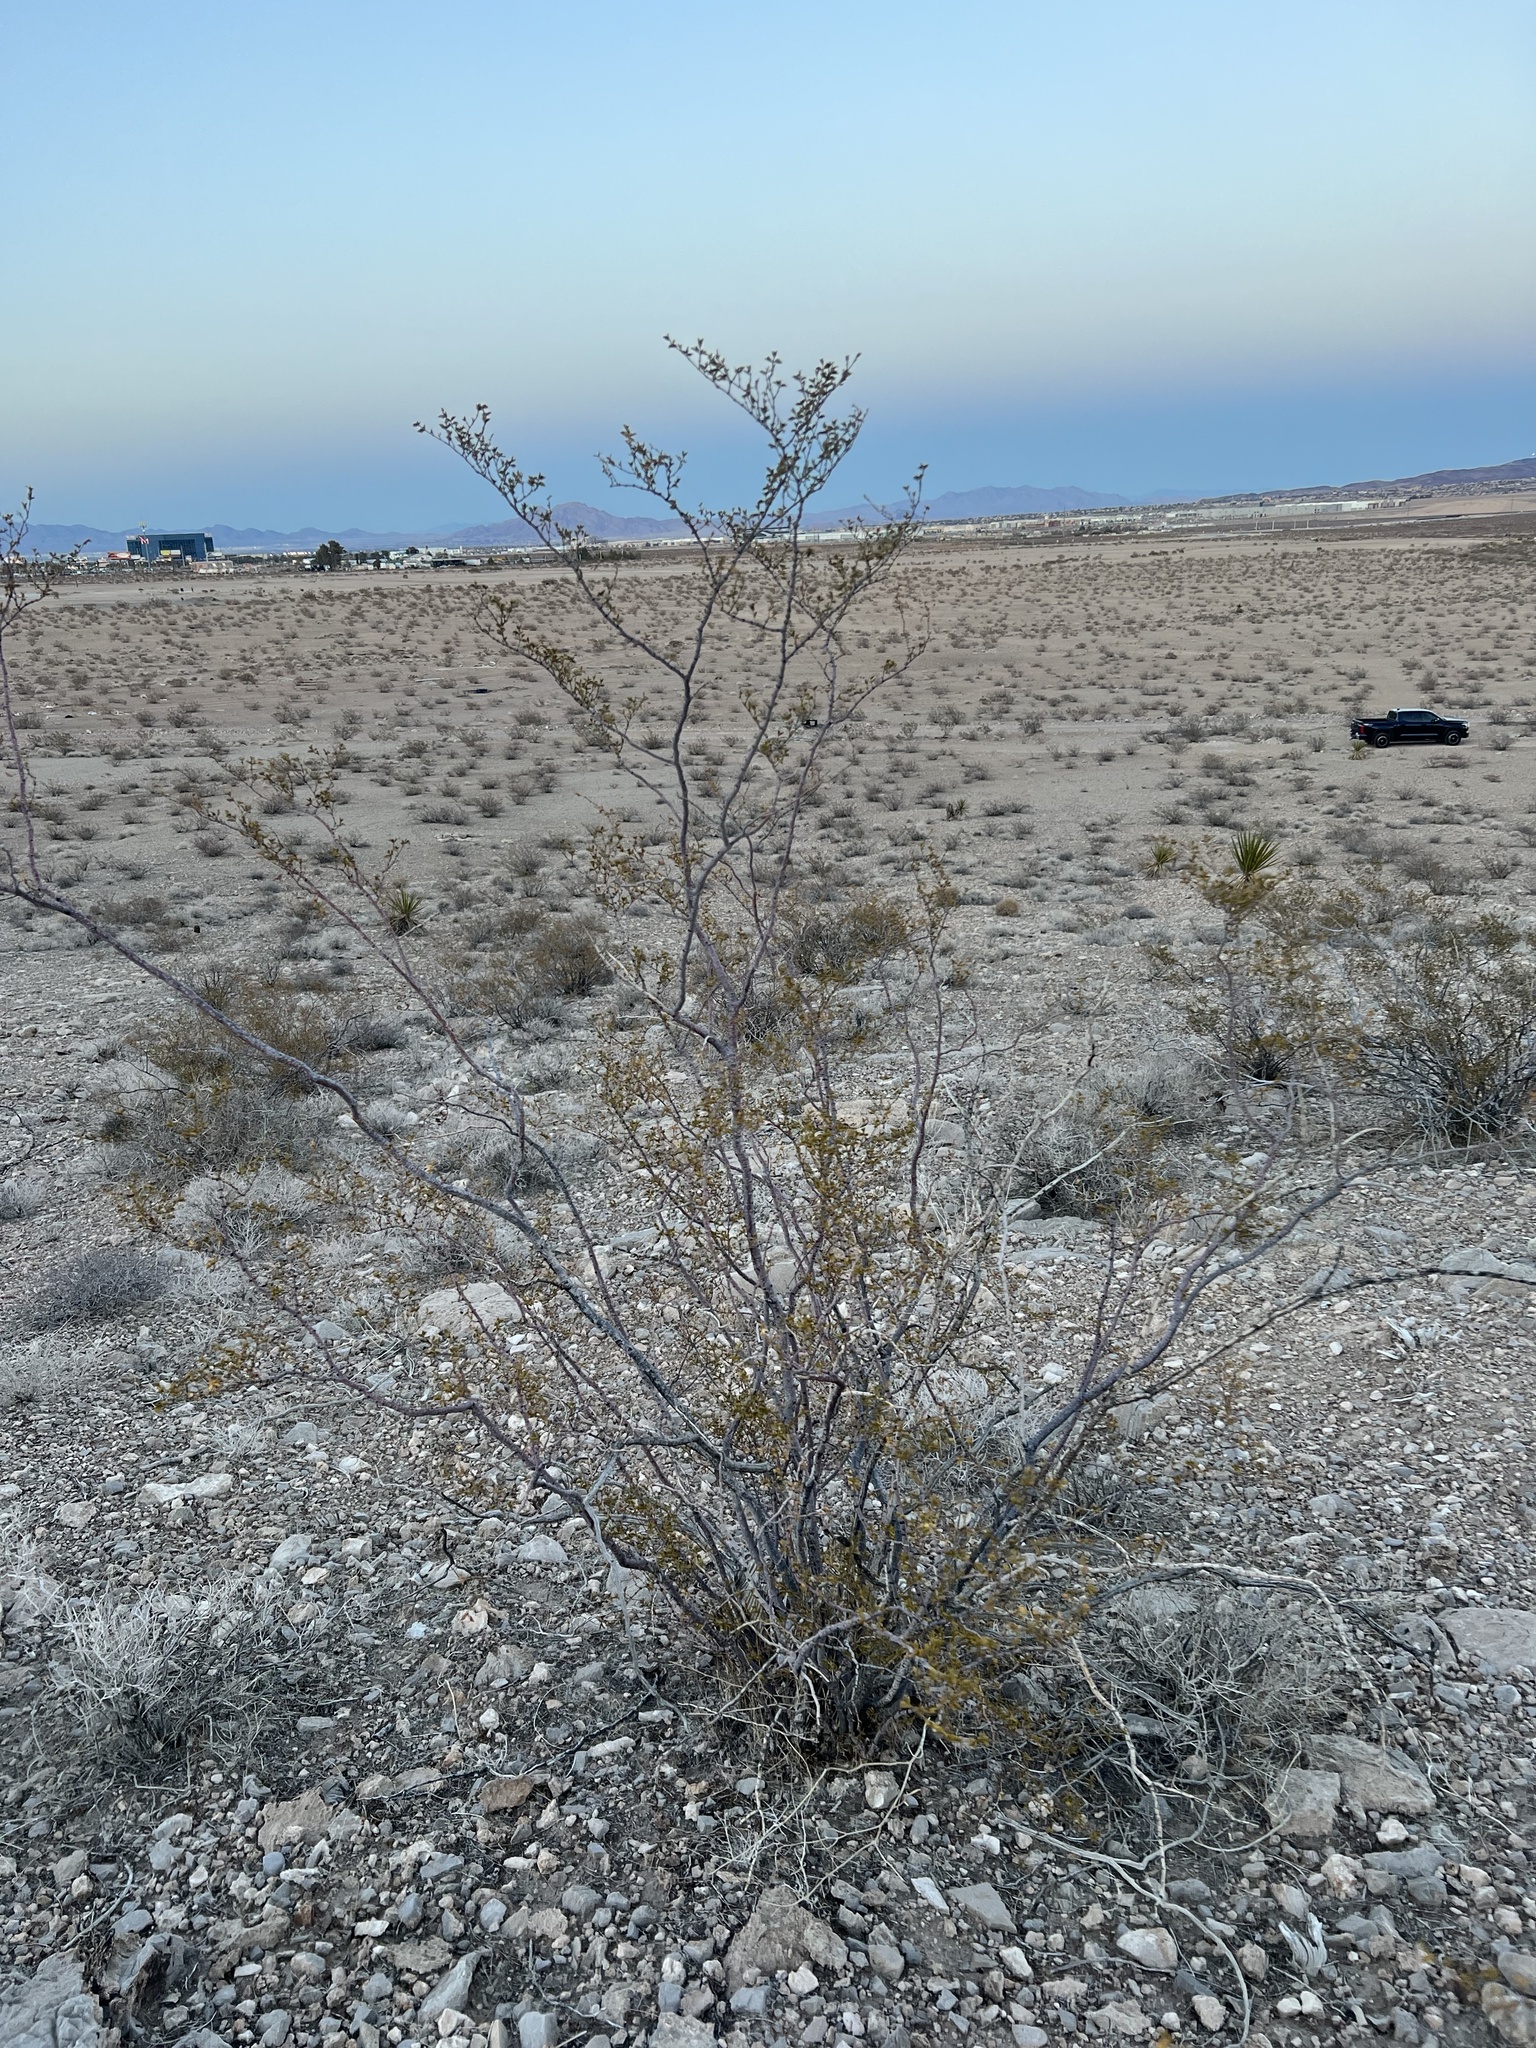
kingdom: Plantae
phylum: Tracheophyta
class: Magnoliopsida
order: Zygophyllales
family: Zygophyllaceae
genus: Larrea
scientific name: Larrea tridentata
